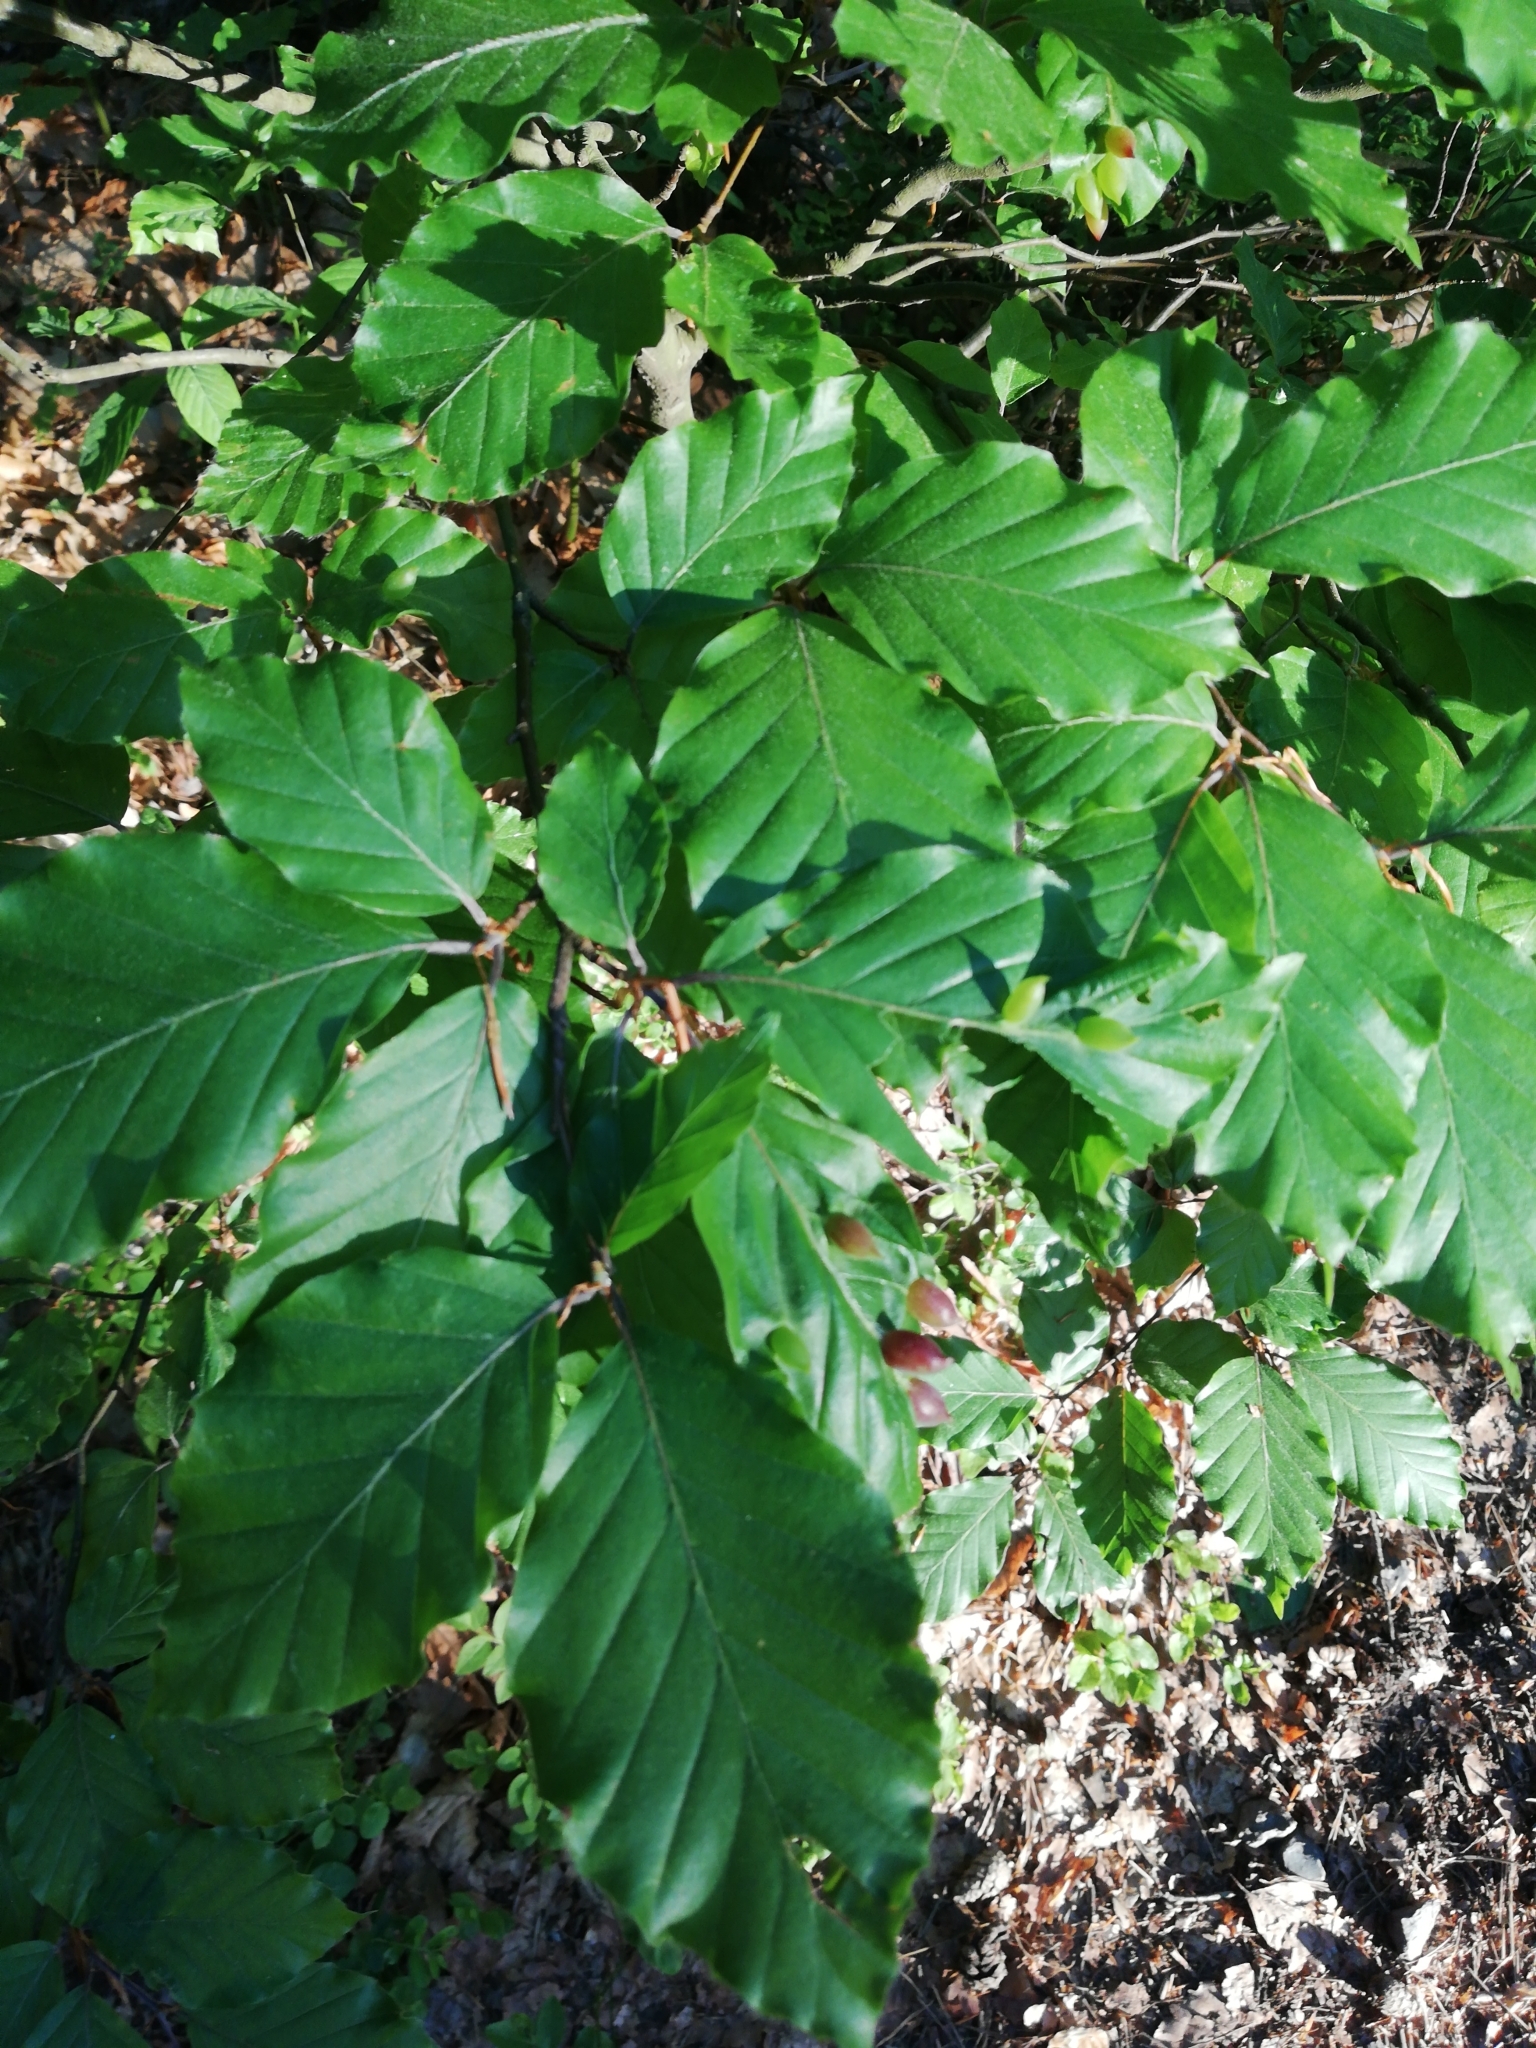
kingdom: Plantae
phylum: Tracheophyta
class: Magnoliopsida
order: Fagales
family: Fagaceae
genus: Fagus
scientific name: Fagus sylvatica
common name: Beech
